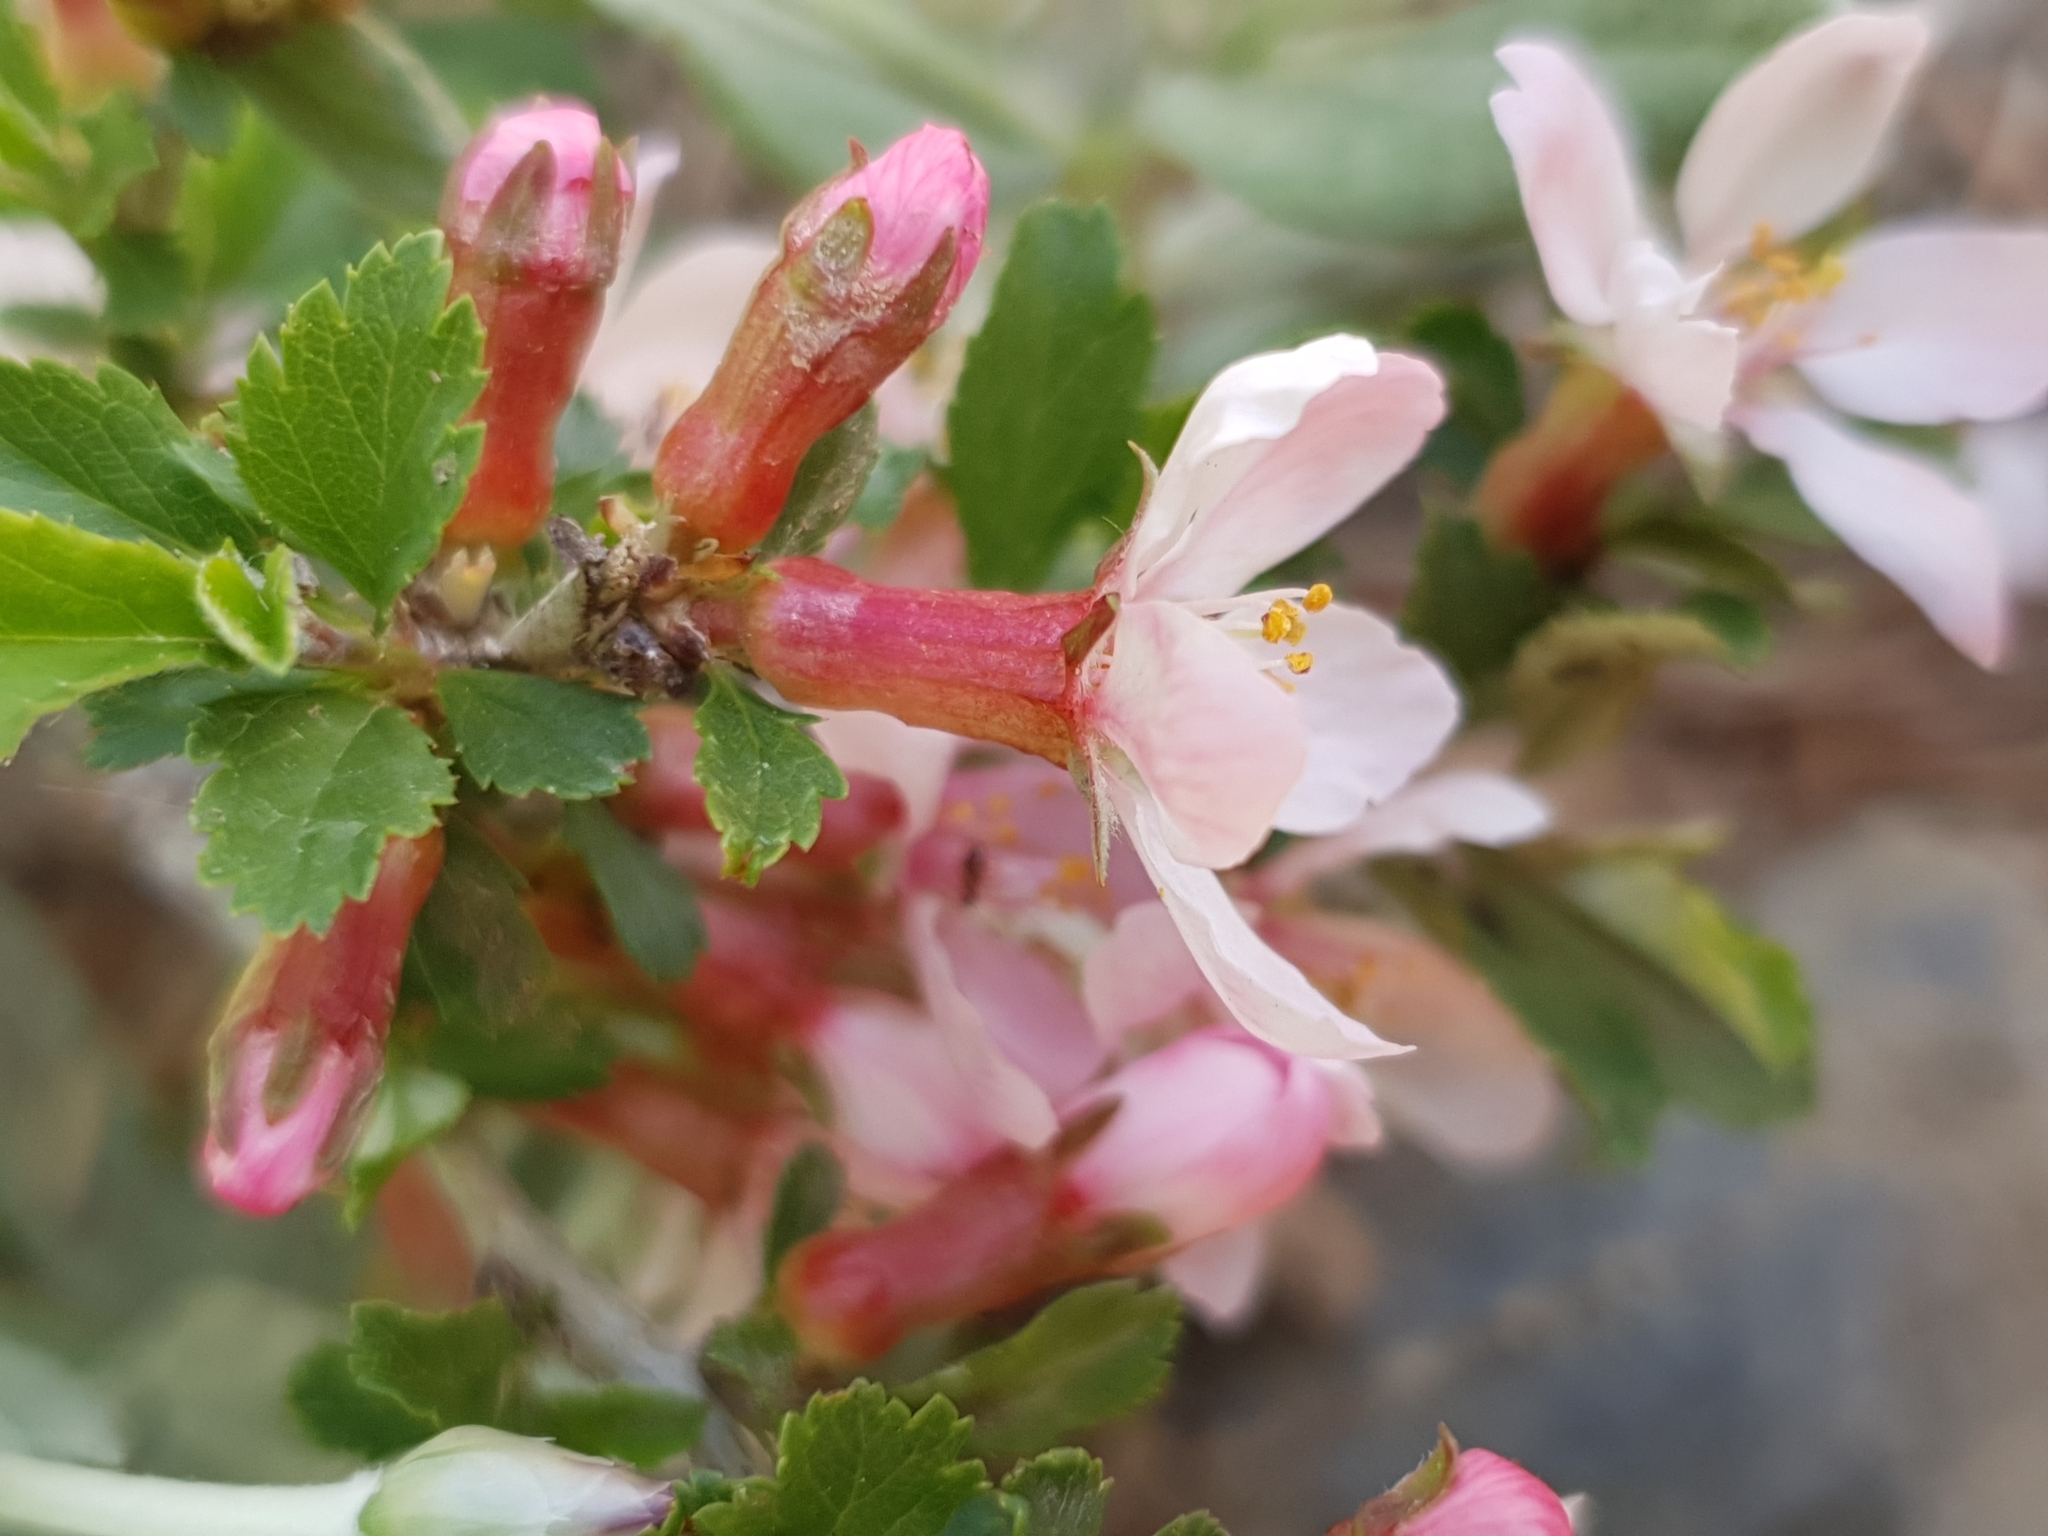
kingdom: Plantae
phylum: Tracheophyta
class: Magnoliopsida
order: Rosales
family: Rosaceae
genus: Prunus
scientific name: Prunus prostrata
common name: Mountain cherry
